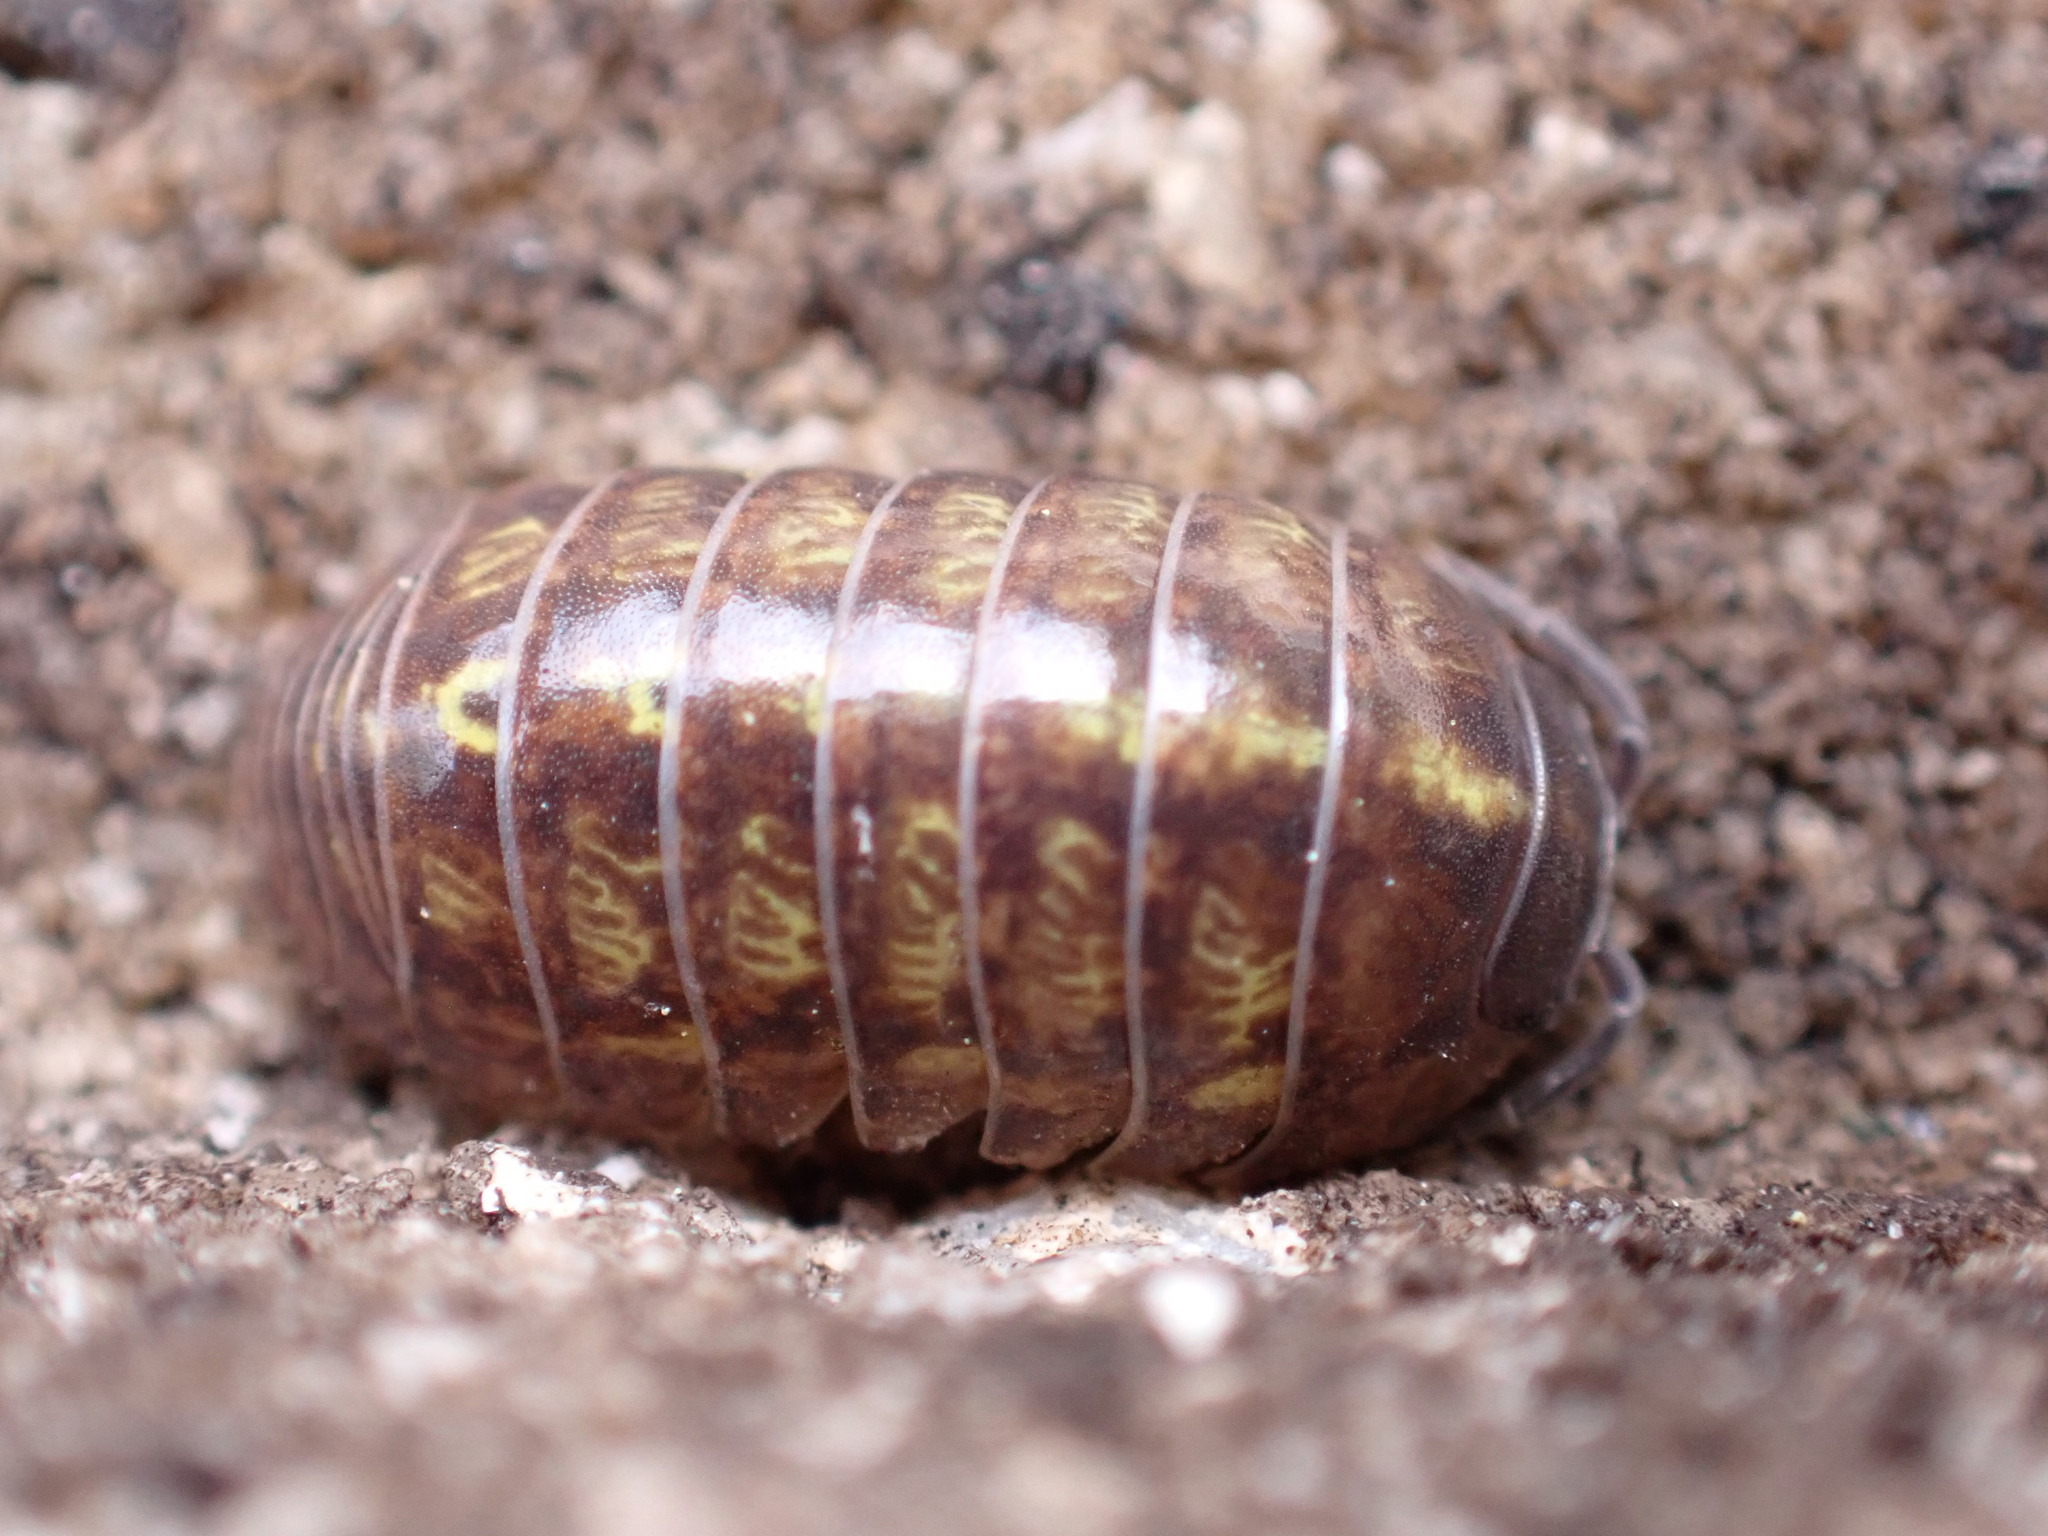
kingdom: Animalia
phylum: Arthropoda
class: Malacostraca
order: Isopoda
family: Armadillidiidae
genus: Armadillidium
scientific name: Armadillidium vulgare
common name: Common pill woodlouse
